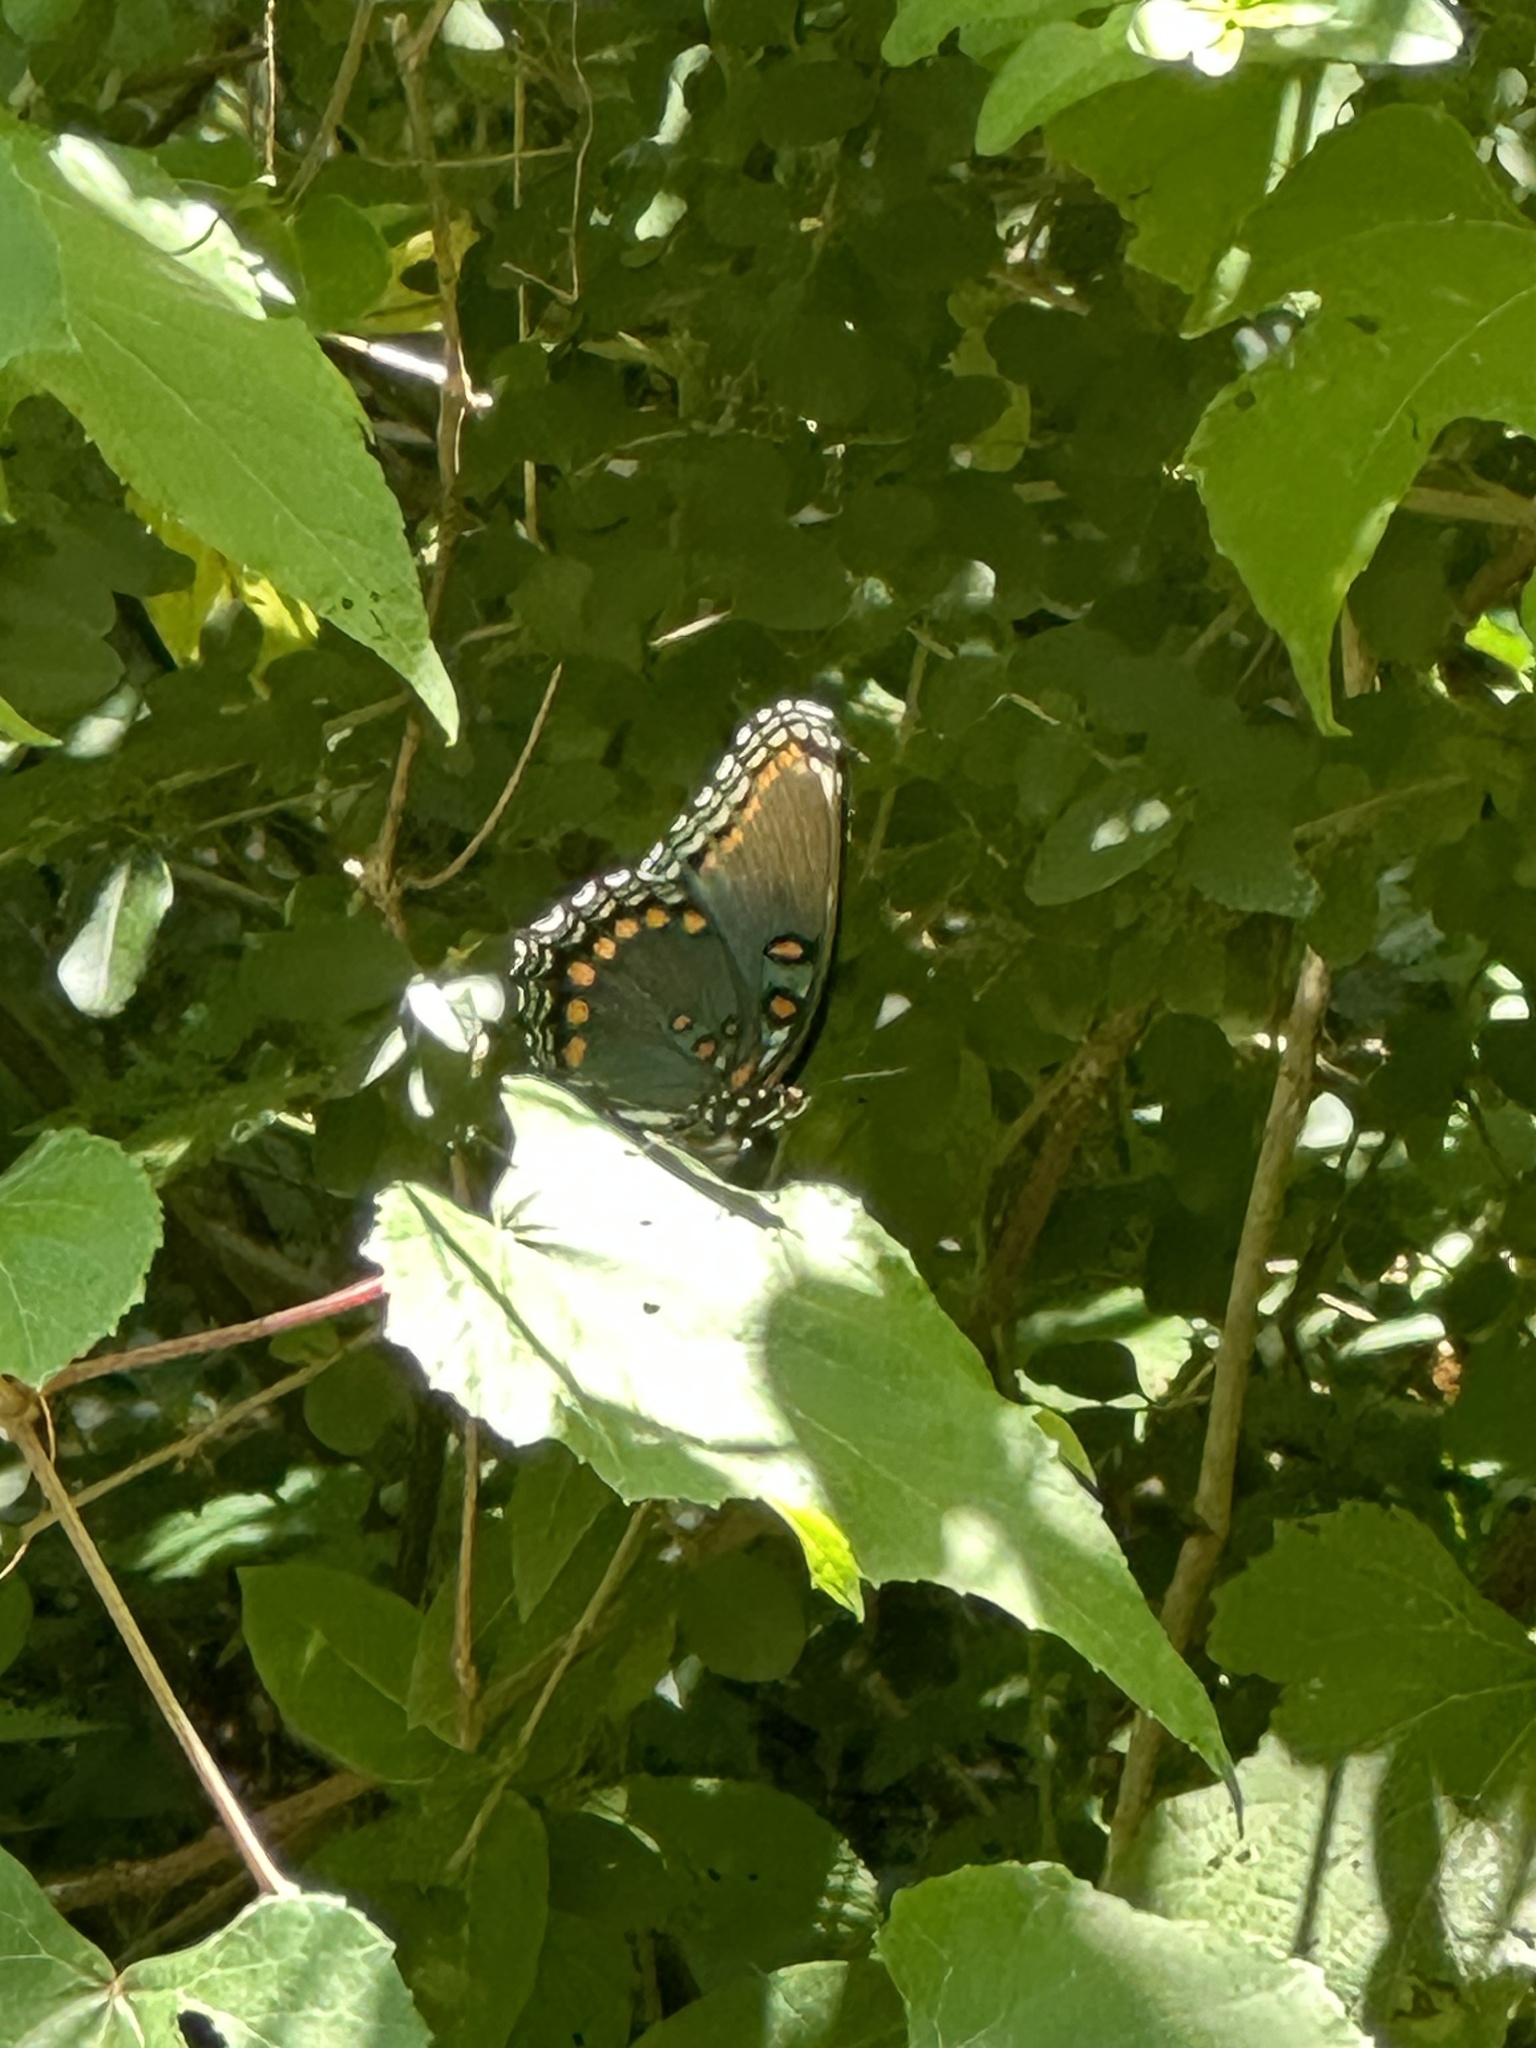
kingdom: Animalia
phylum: Arthropoda
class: Insecta
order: Lepidoptera
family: Nymphalidae
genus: Limenitis
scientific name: Limenitis arthemis
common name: Red-spotted admiral
